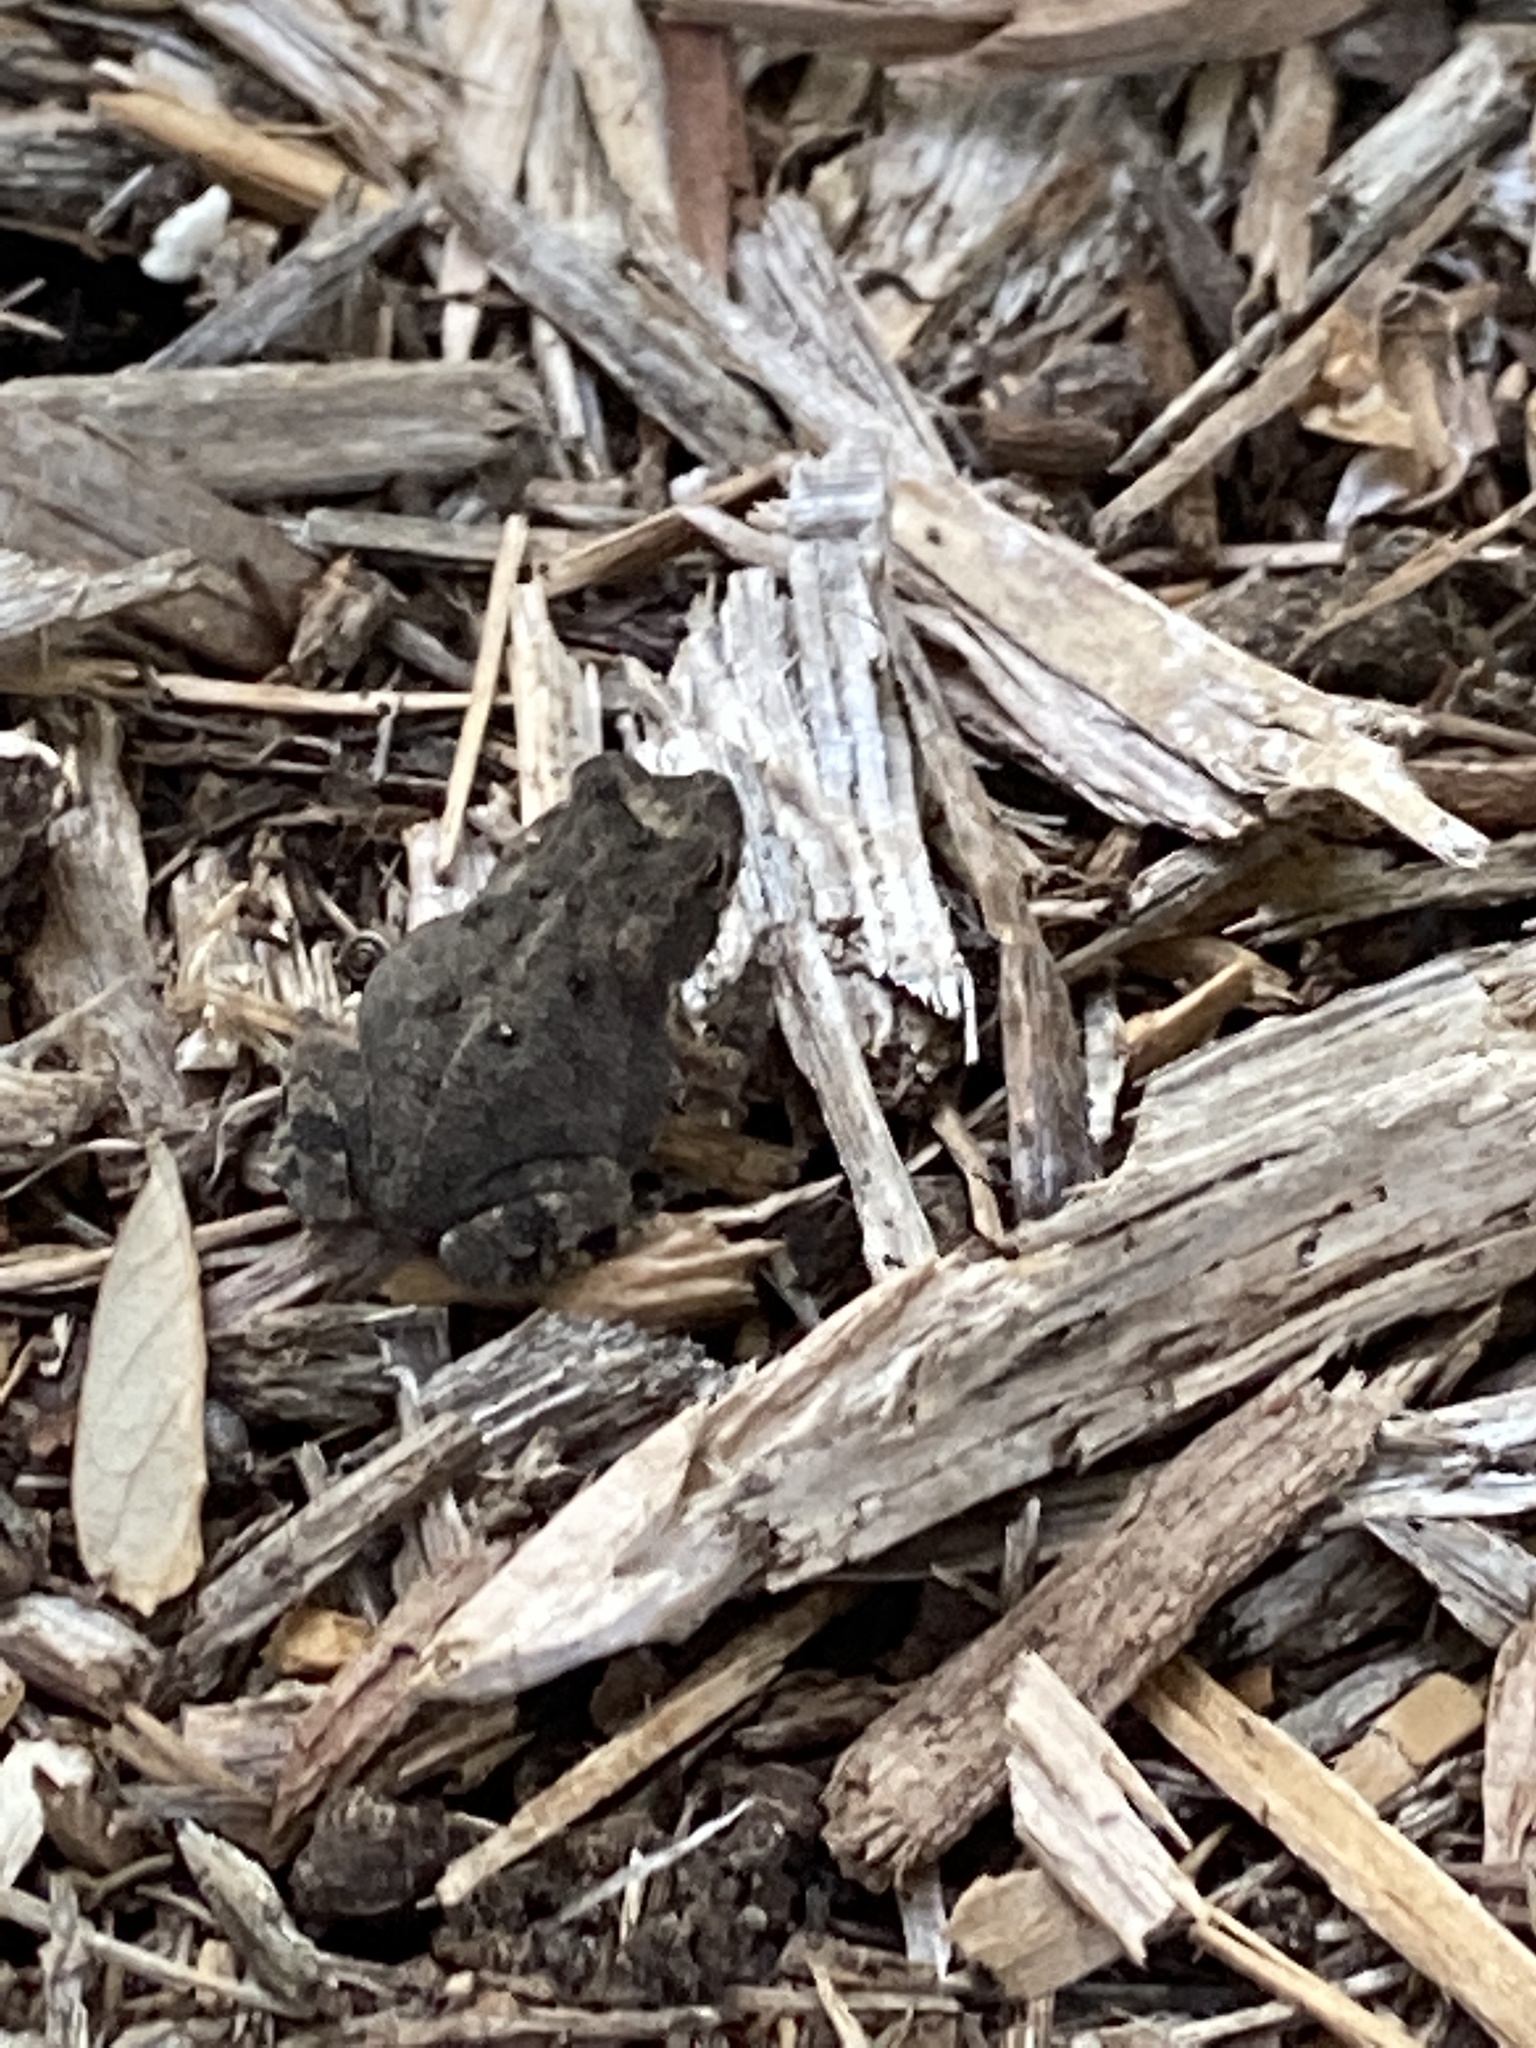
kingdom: Animalia
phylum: Chordata
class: Amphibia
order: Anura
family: Bufonidae
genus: Incilius
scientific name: Incilius nebulifer
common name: Gulf coast toad
